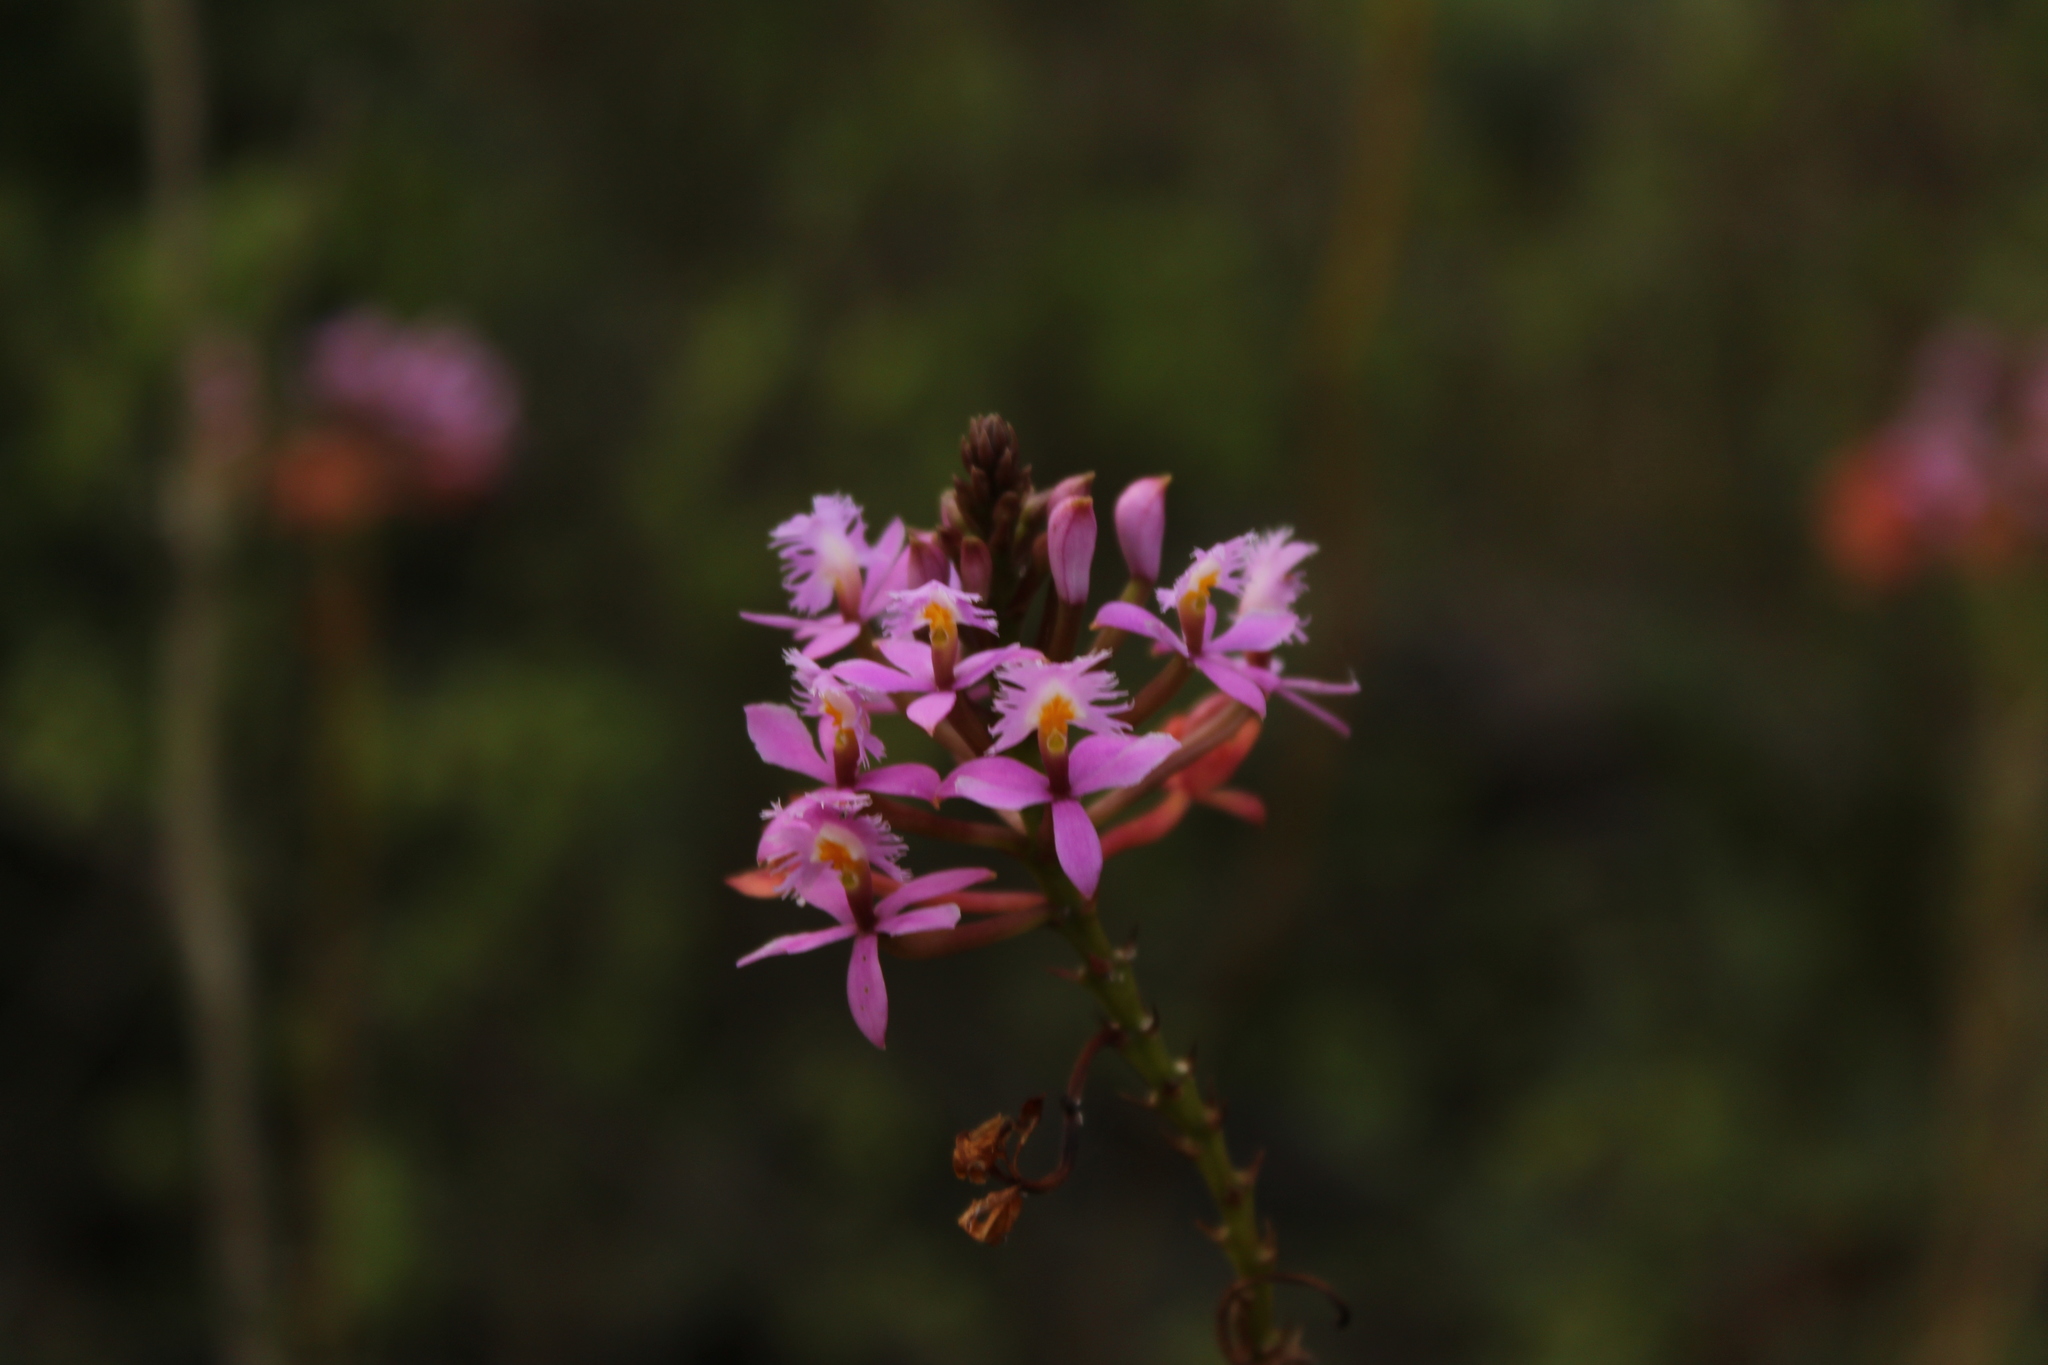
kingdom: Plantae
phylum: Tracheophyta
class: Liliopsida
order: Asparagales
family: Orchidaceae
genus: Epidendrum
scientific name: Epidendrum arachnoglossum
